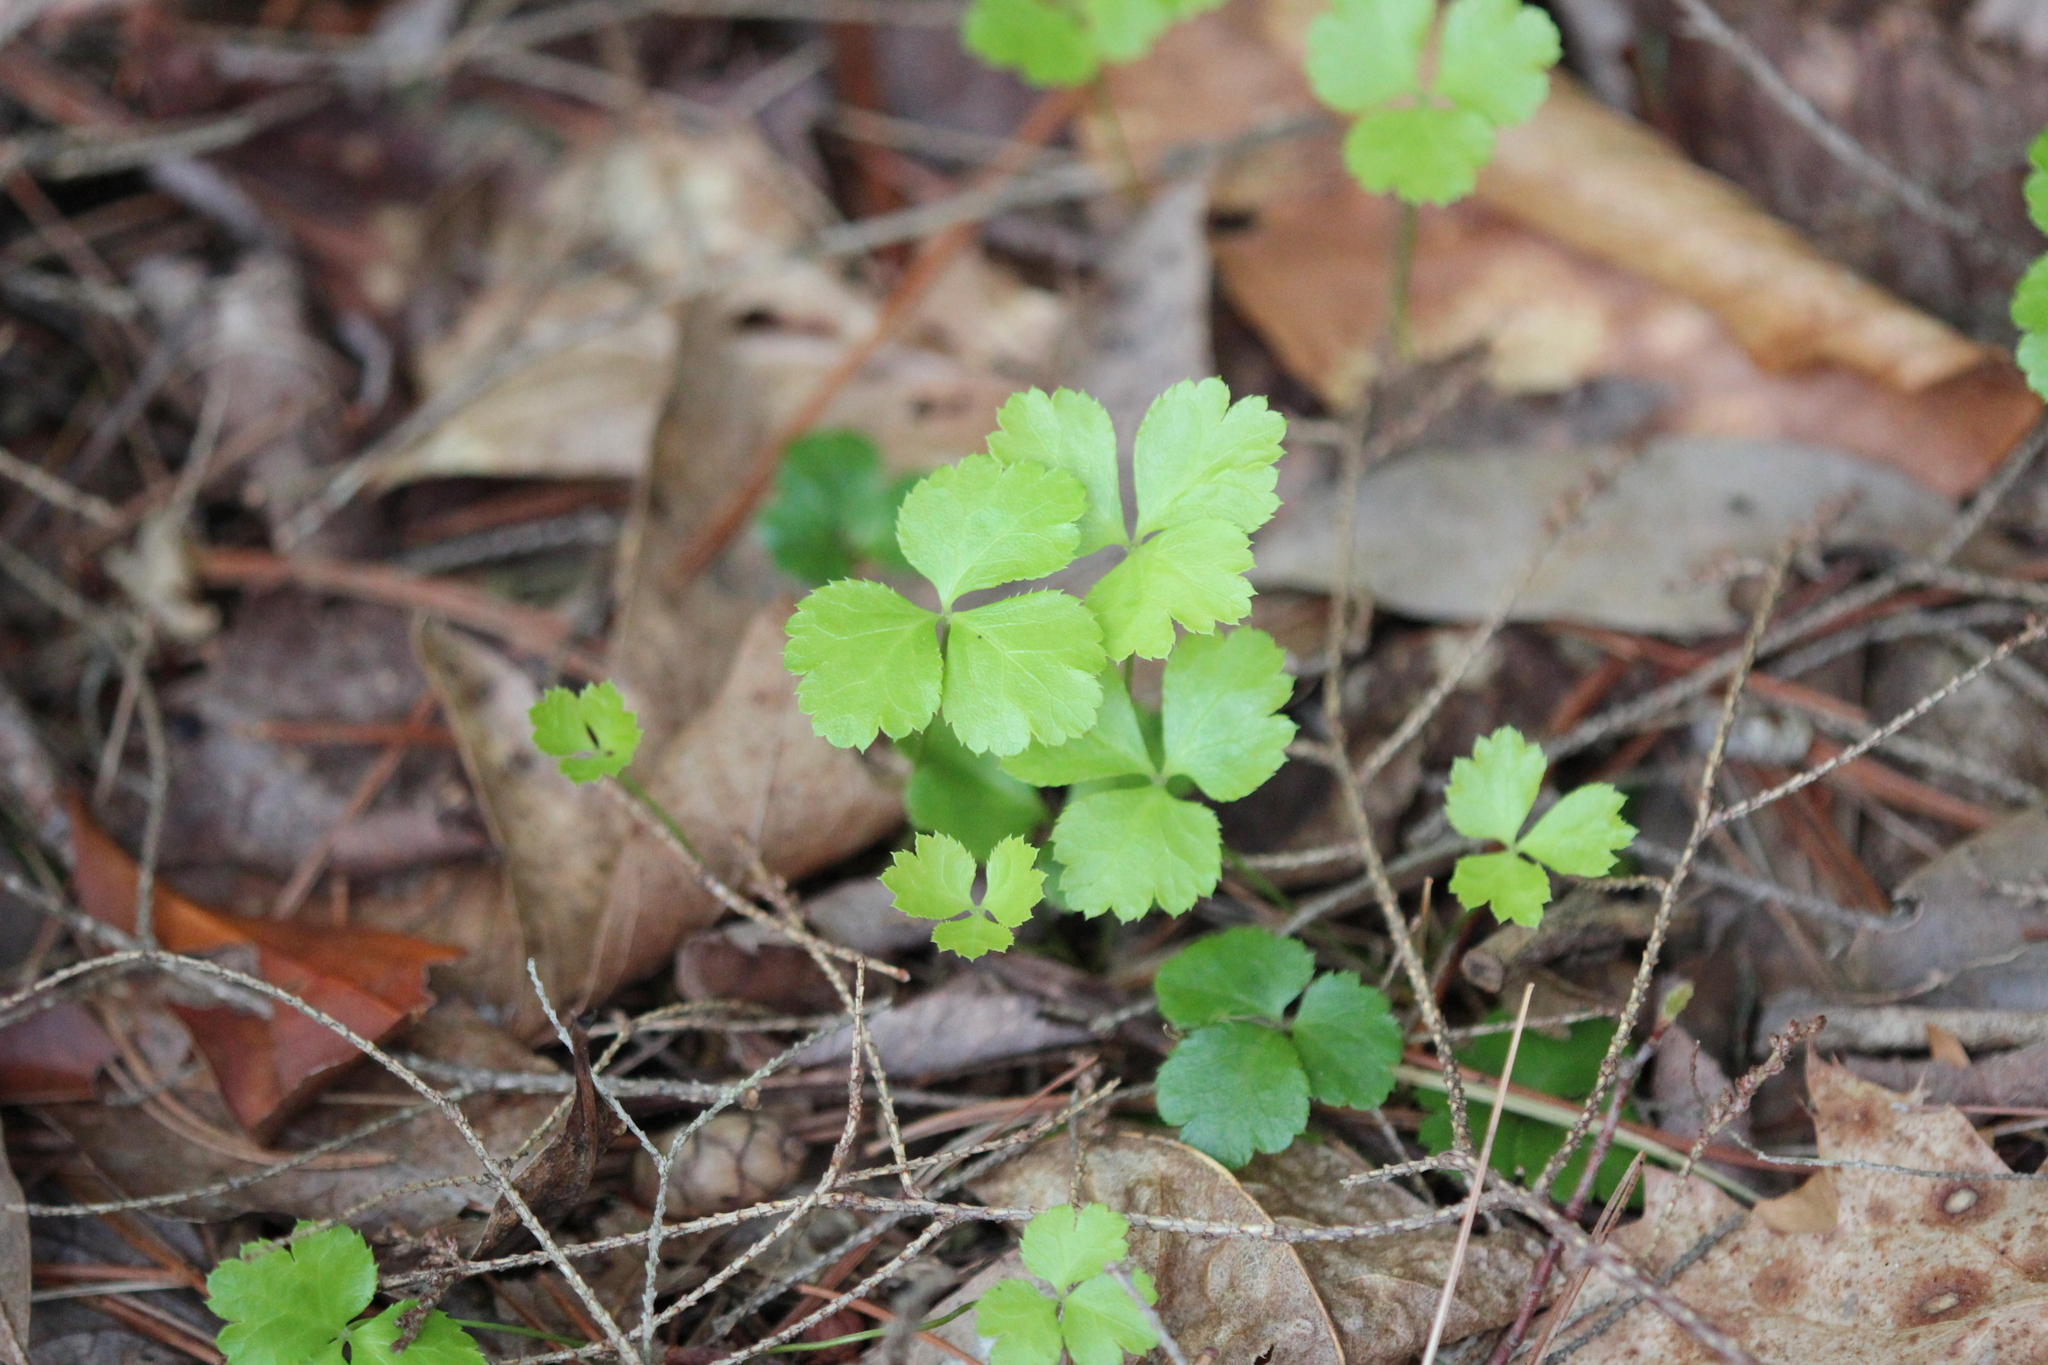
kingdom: Plantae
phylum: Tracheophyta
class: Magnoliopsida
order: Ranunculales
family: Ranunculaceae
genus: Coptis
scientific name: Coptis trifolia
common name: Canker-root
